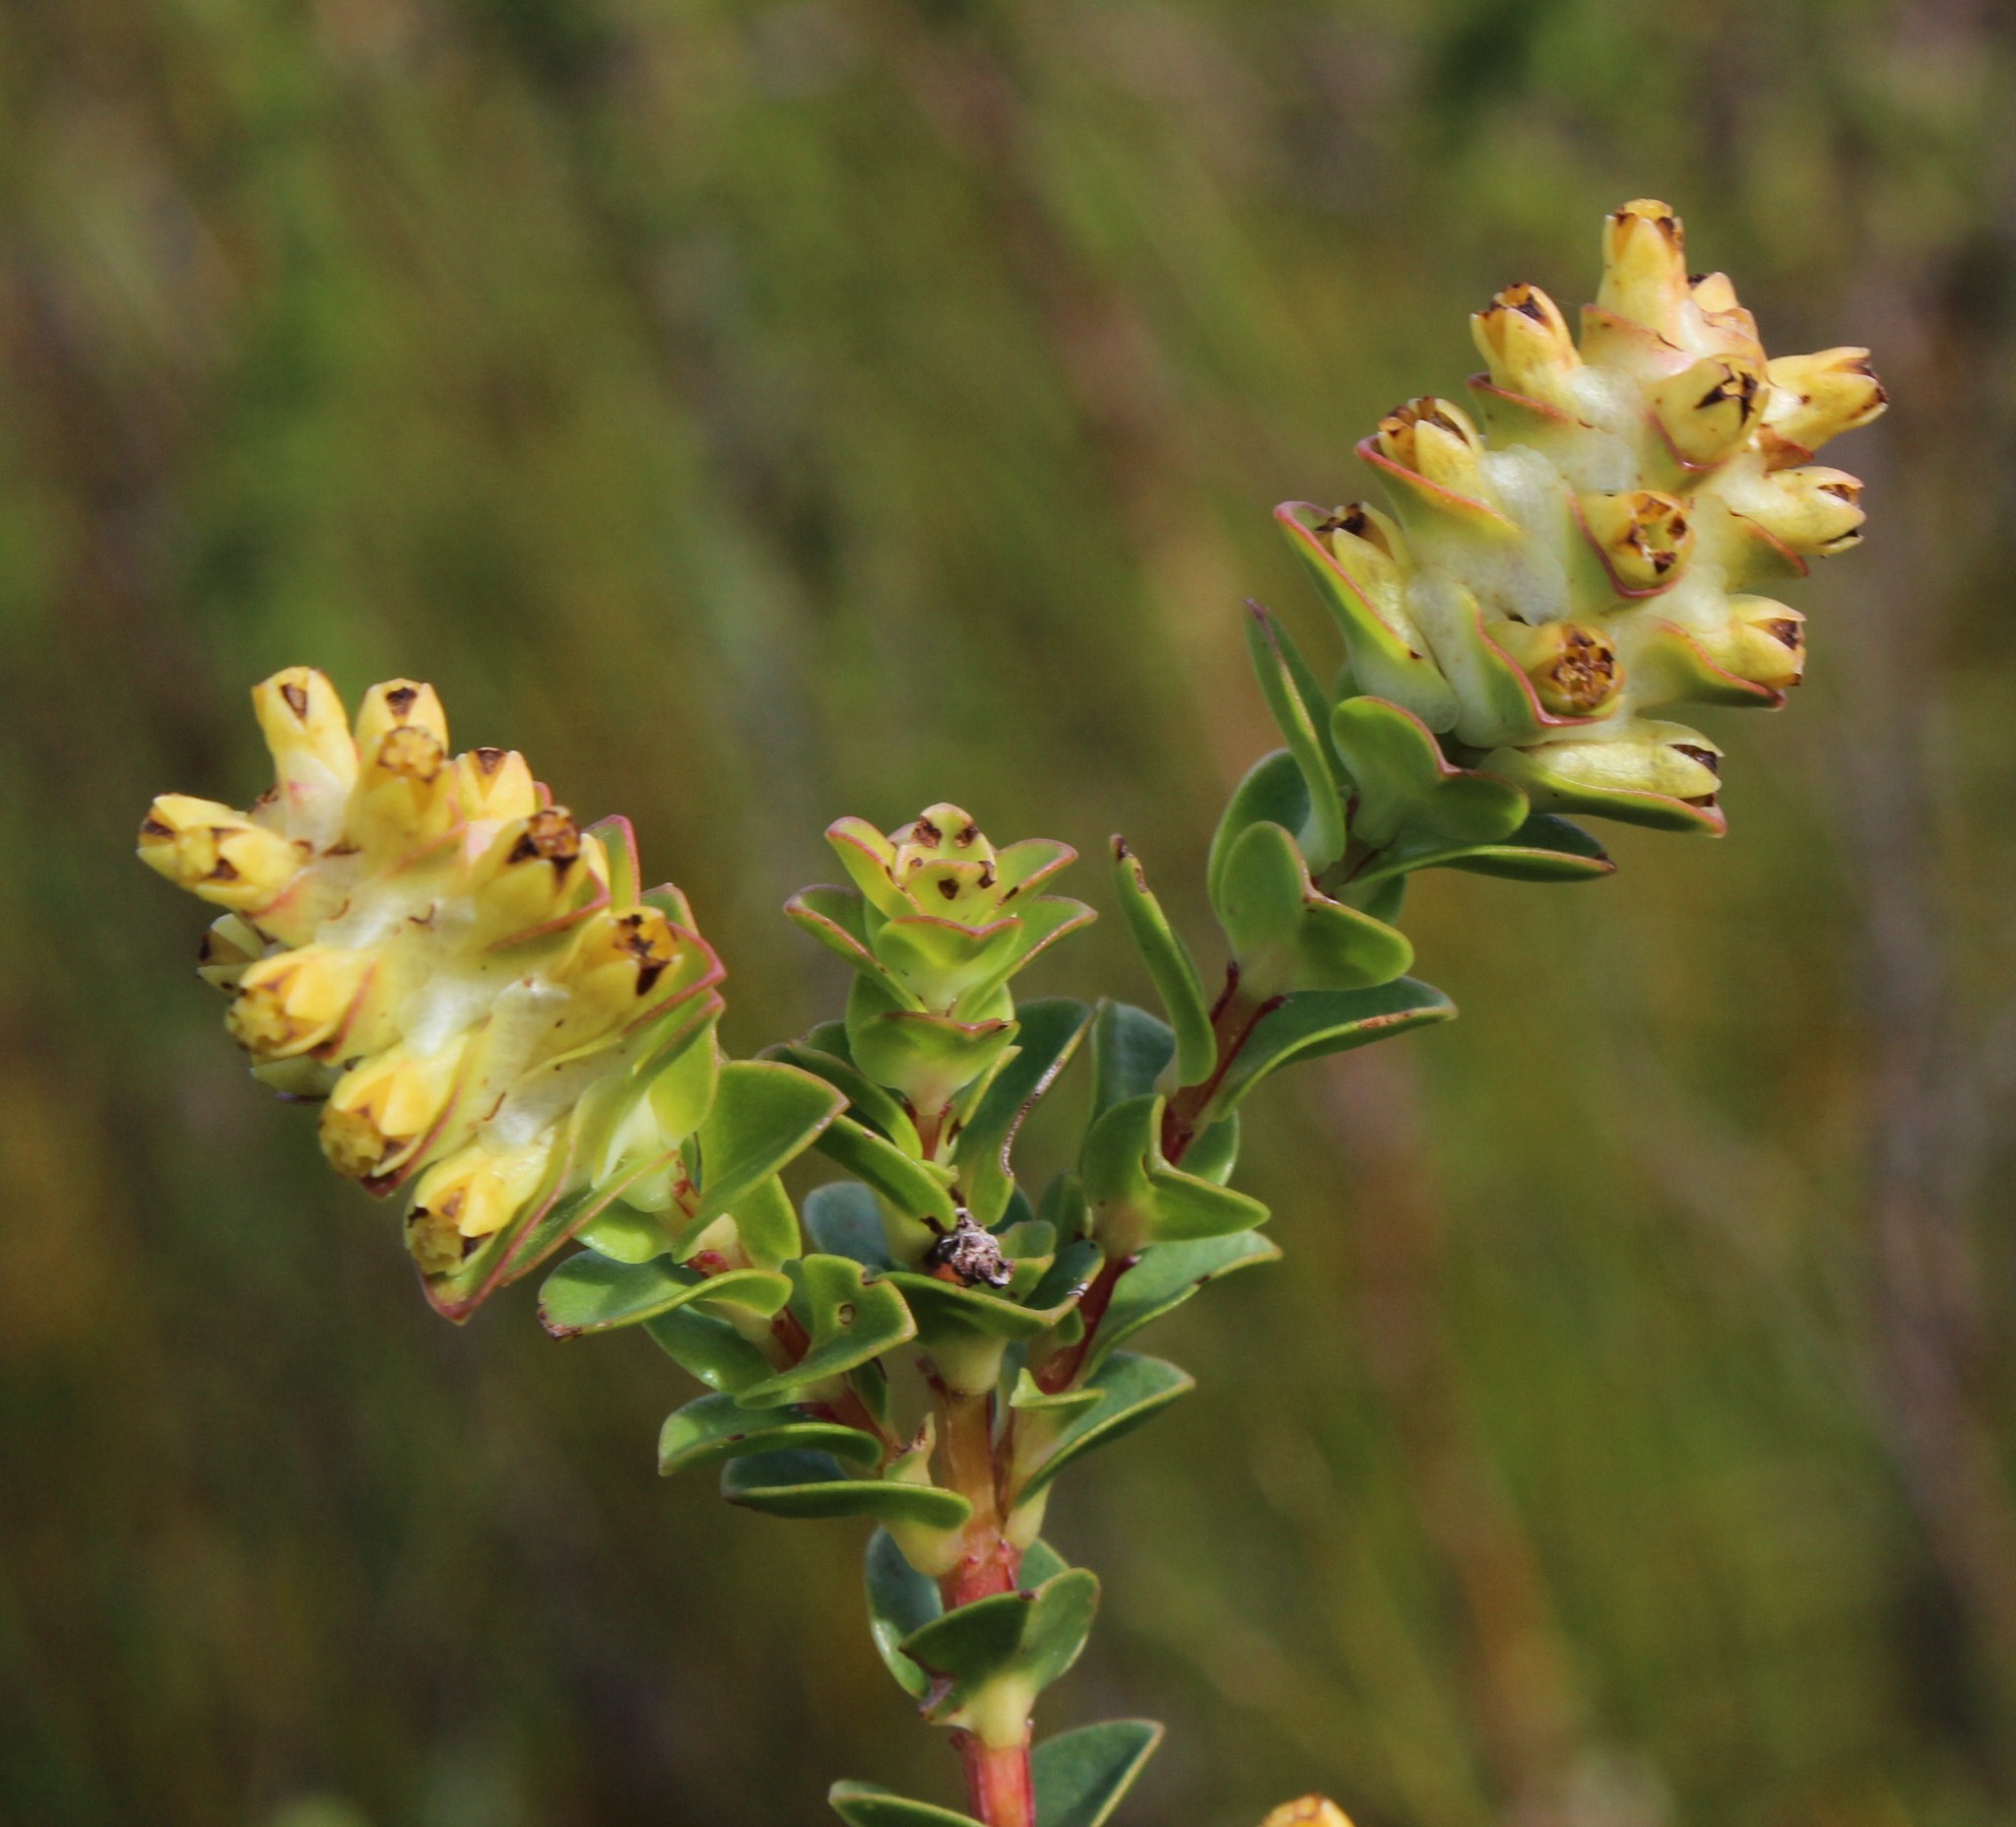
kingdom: Plantae
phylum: Tracheophyta
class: Magnoliopsida
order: Myrtales
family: Penaeaceae
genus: Penaea
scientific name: Penaea cneorum
